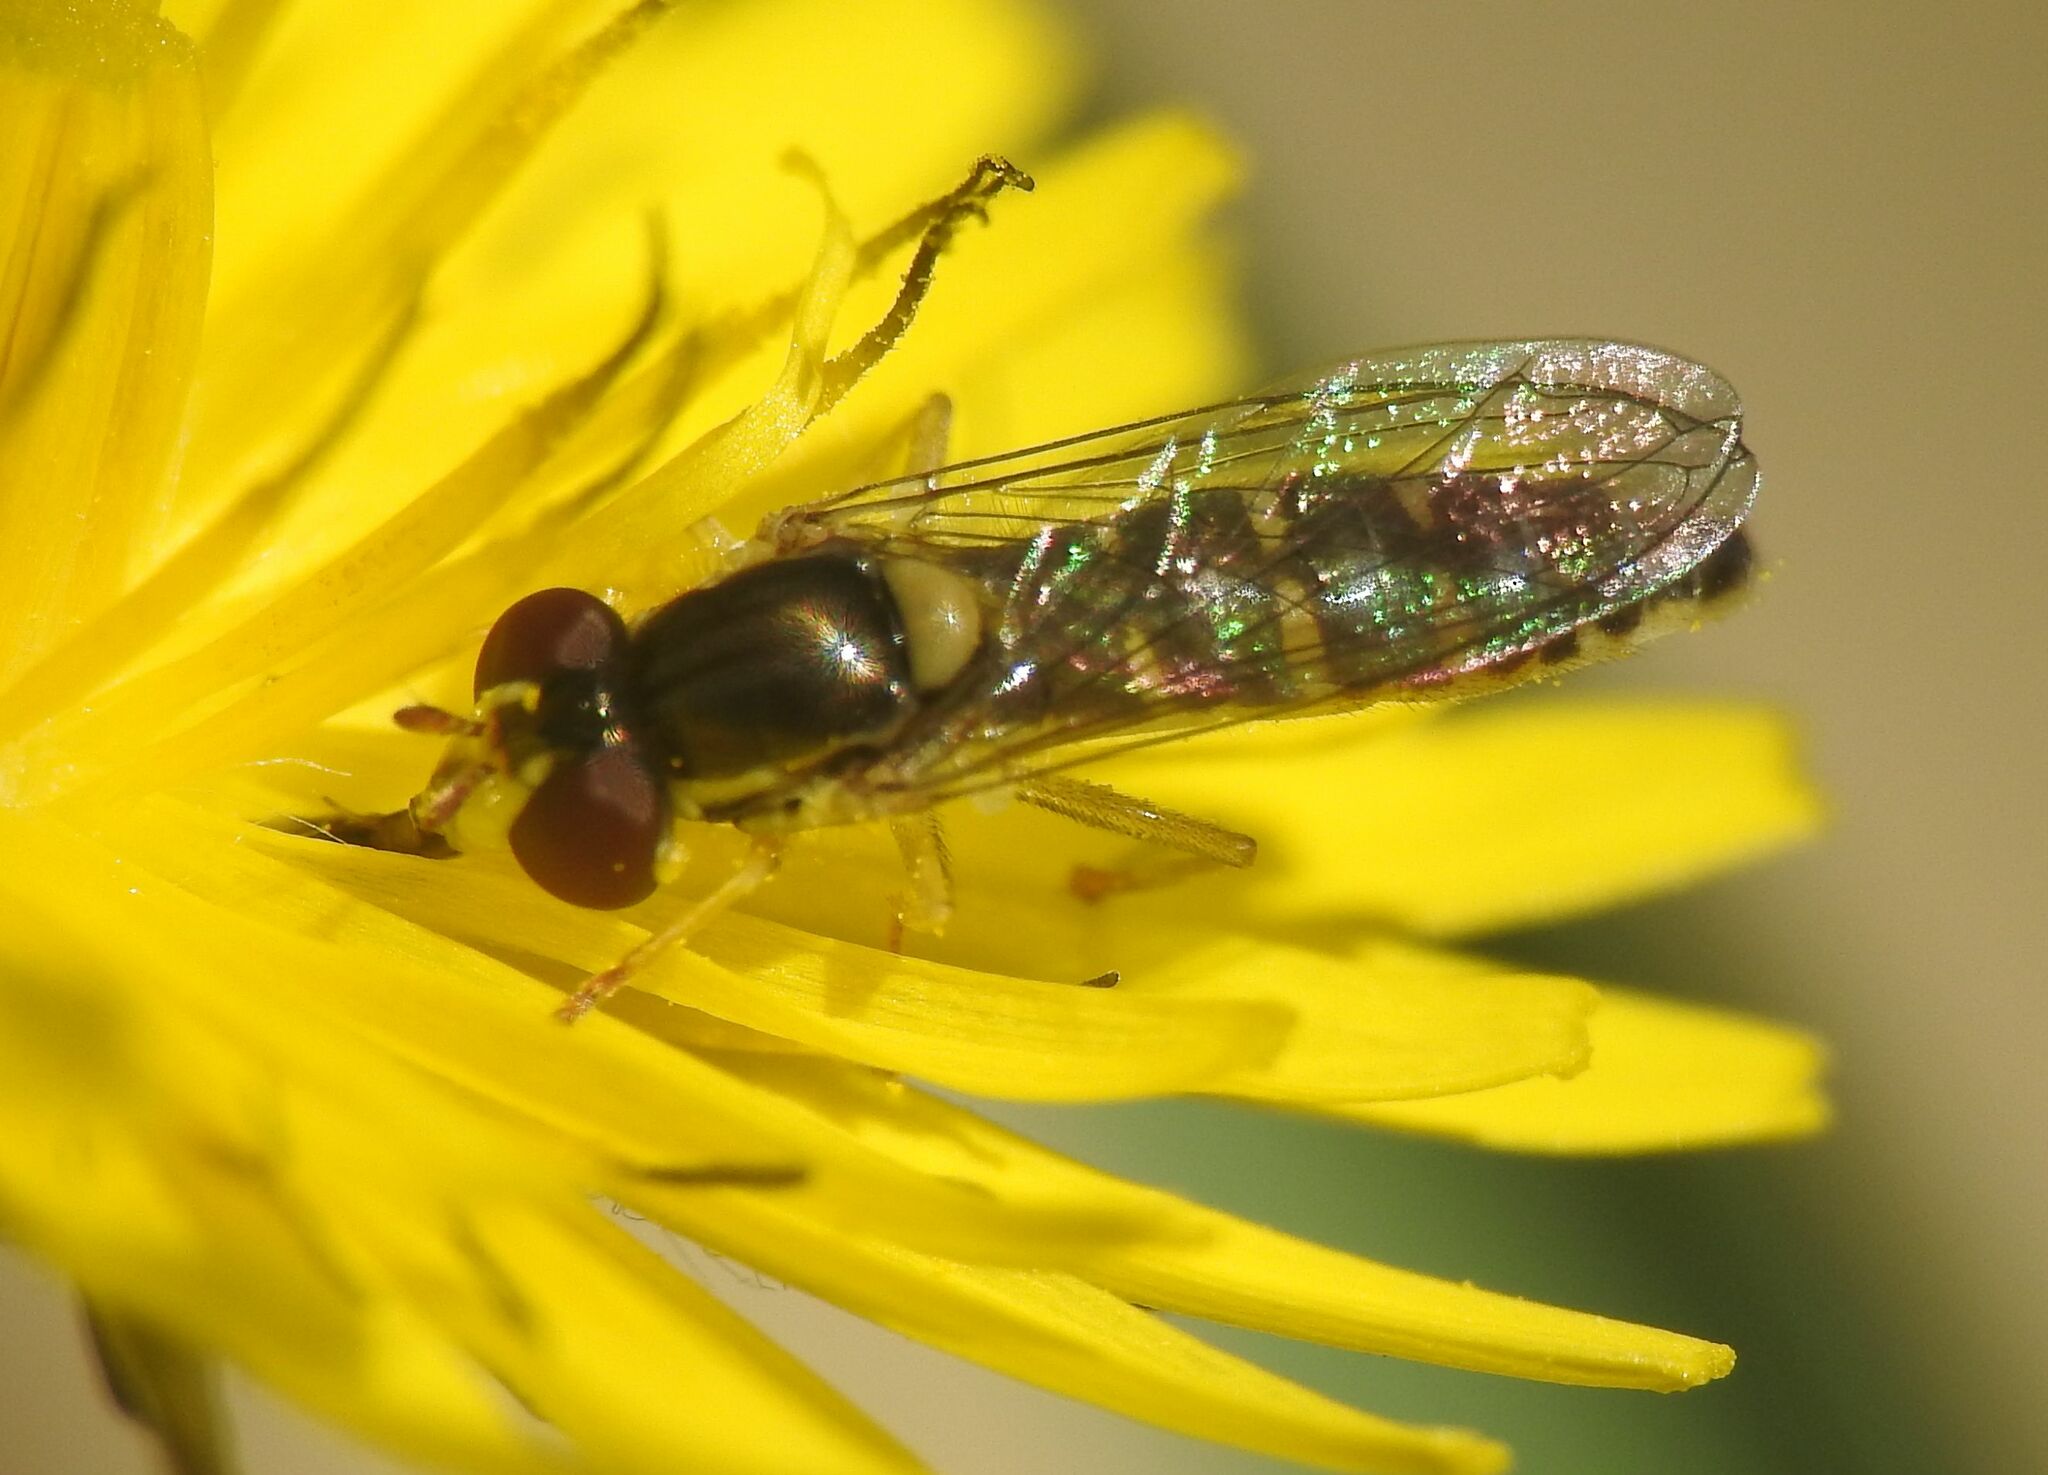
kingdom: Animalia
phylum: Arthropoda
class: Insecta
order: Diptera
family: Syrphidae
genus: Sphaerophoria
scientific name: Sphaerophoria
